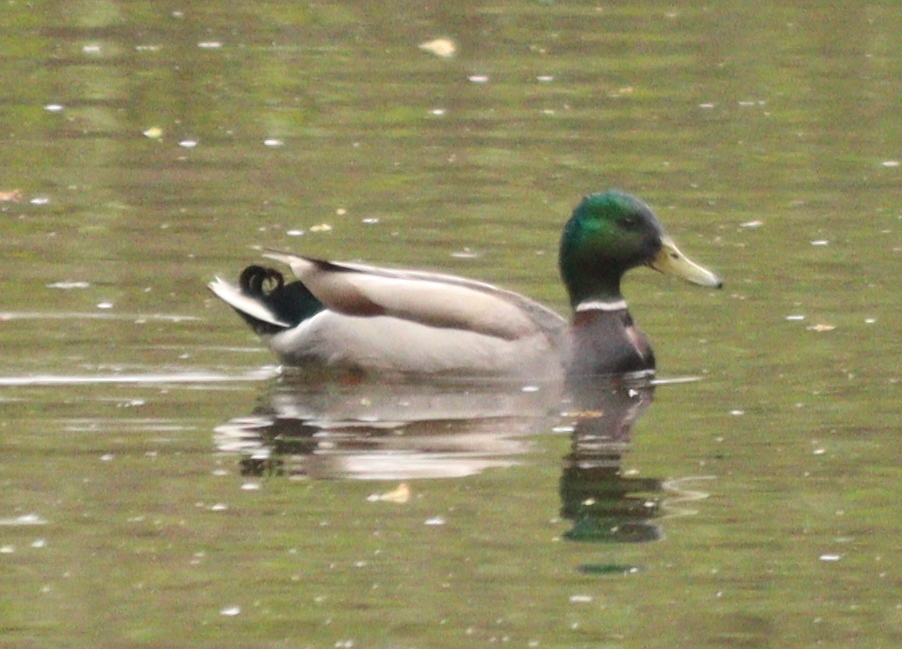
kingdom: Animalia
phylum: Chordata
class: Aves
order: Anseriformes
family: Anatidae
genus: Anas
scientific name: Anas platyrhynchos
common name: Mallard
